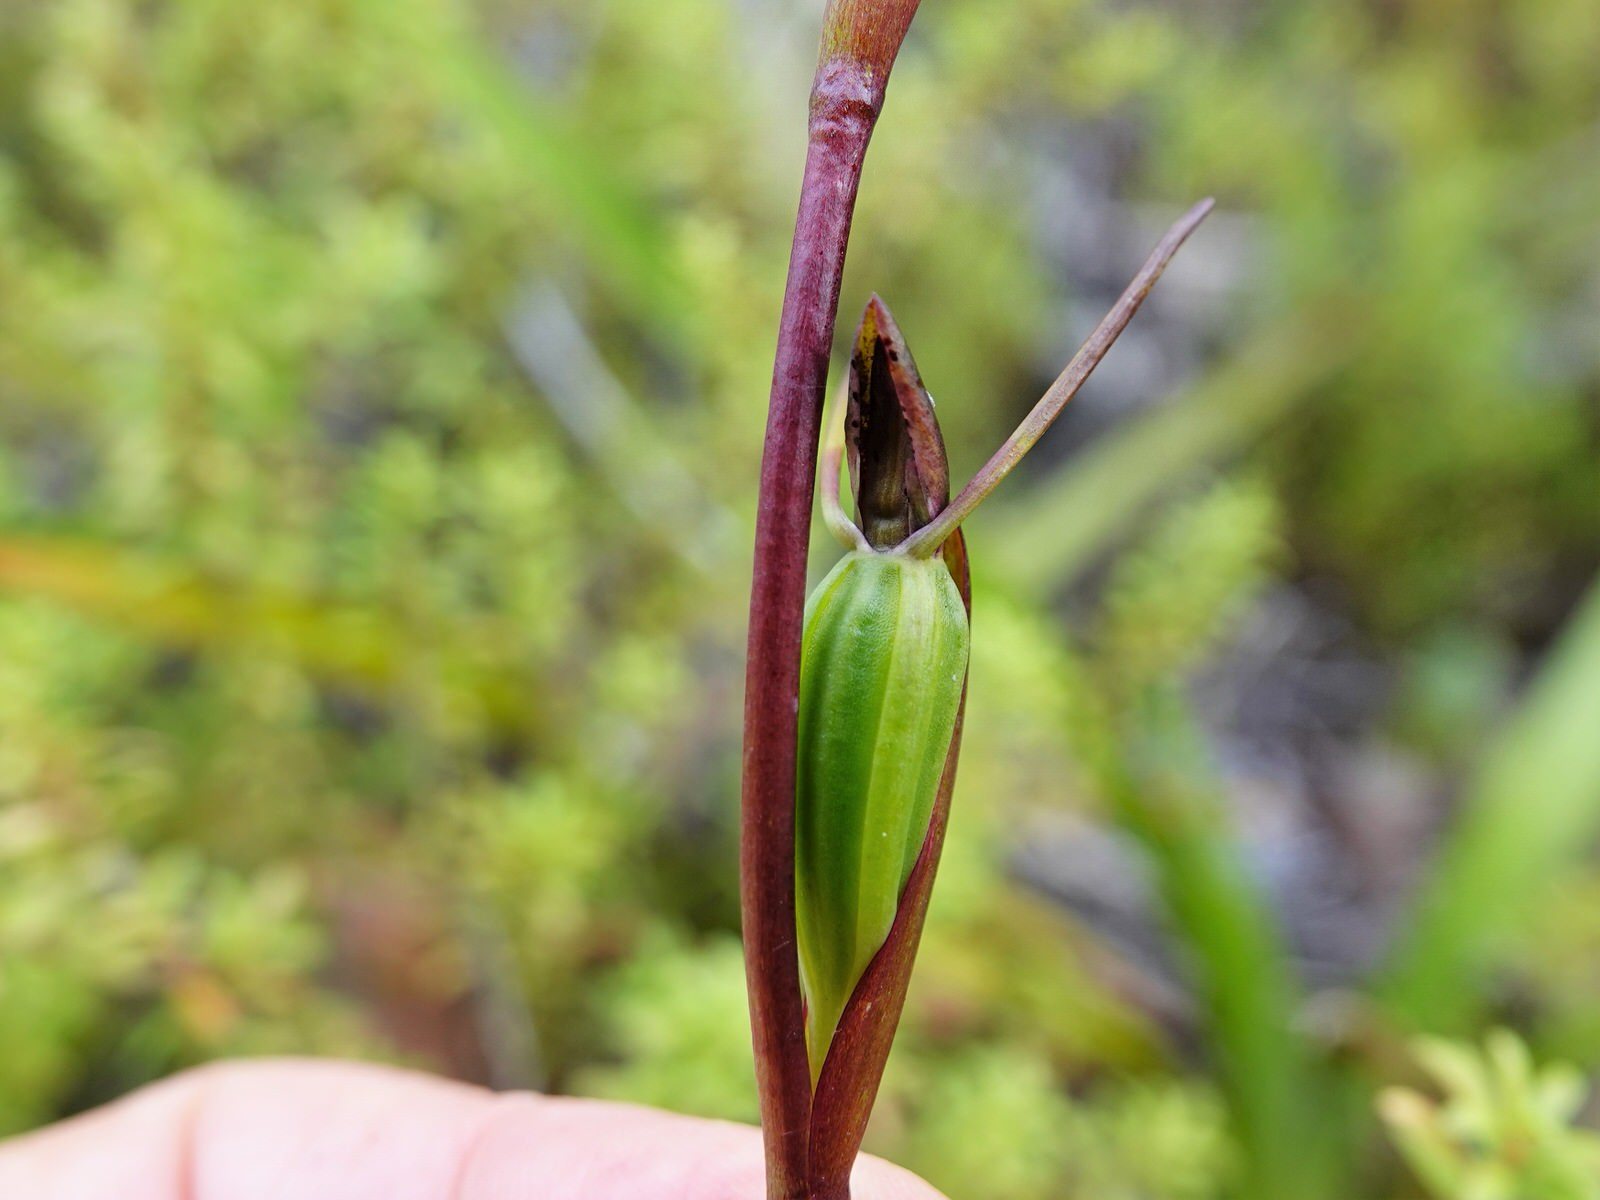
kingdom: Plantae
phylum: Tracheophyta
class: Liliopsida
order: Asparagales
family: Orchidaceae
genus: Orthoceras
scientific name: Orthoceras novae-zeelandiae
